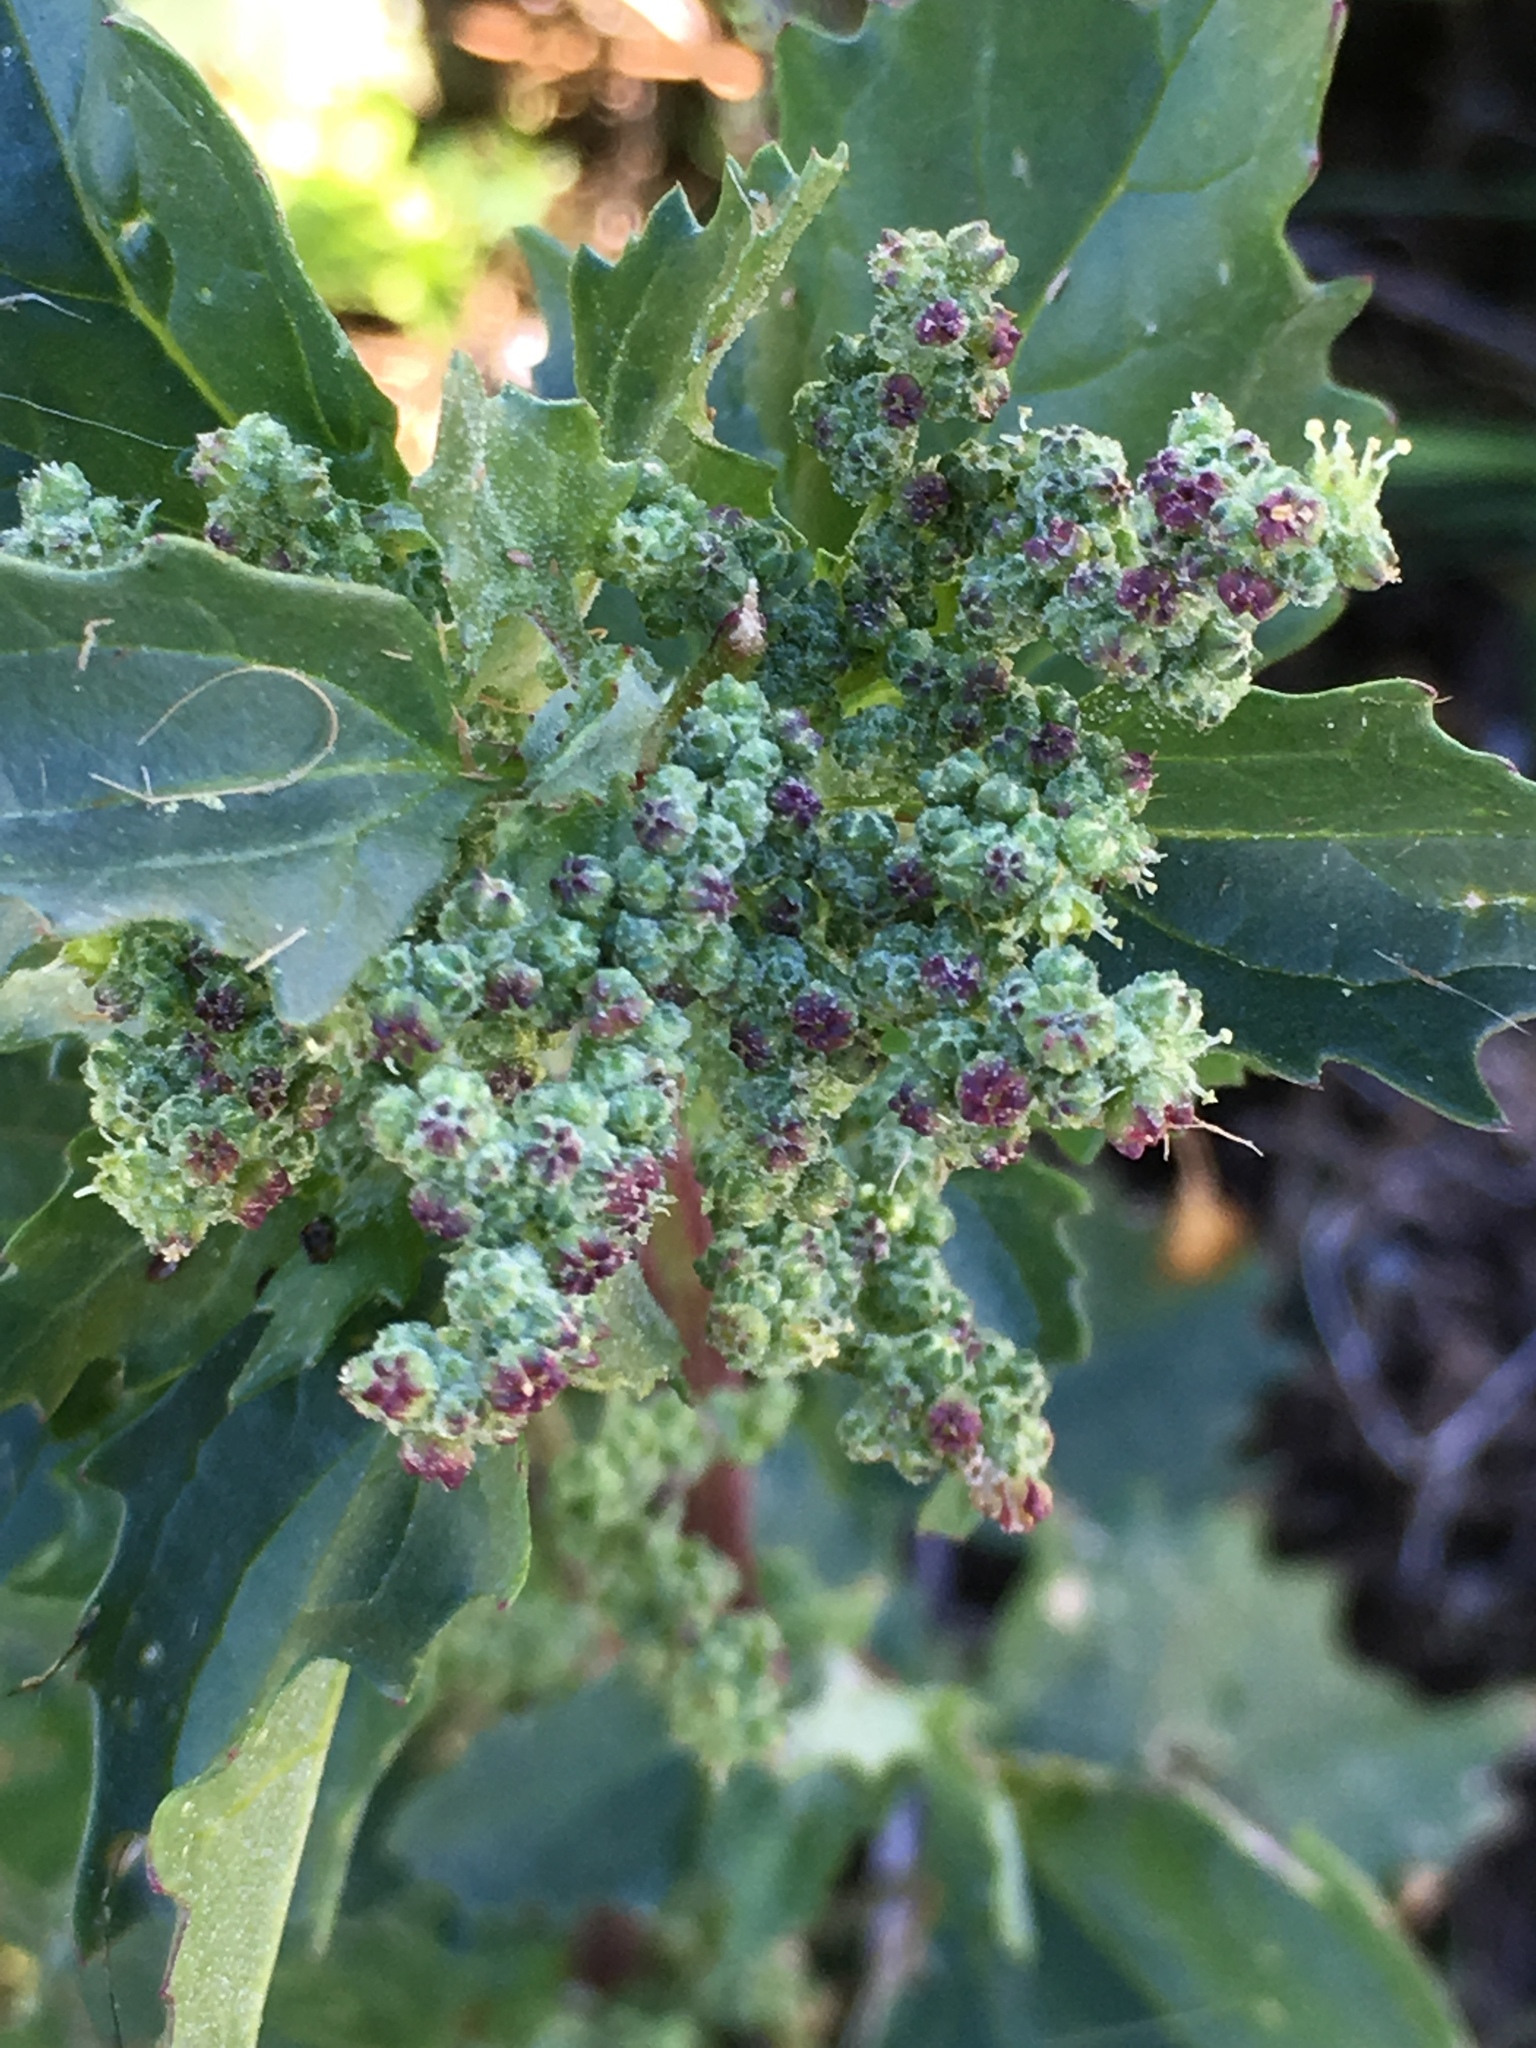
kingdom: Plantae
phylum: Tracheophyta
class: Magnoliopsida
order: Caryophyllales
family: Amaranthaceae
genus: Chenopodiastrum
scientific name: Chenopodiastrum murale
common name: Sowbane
